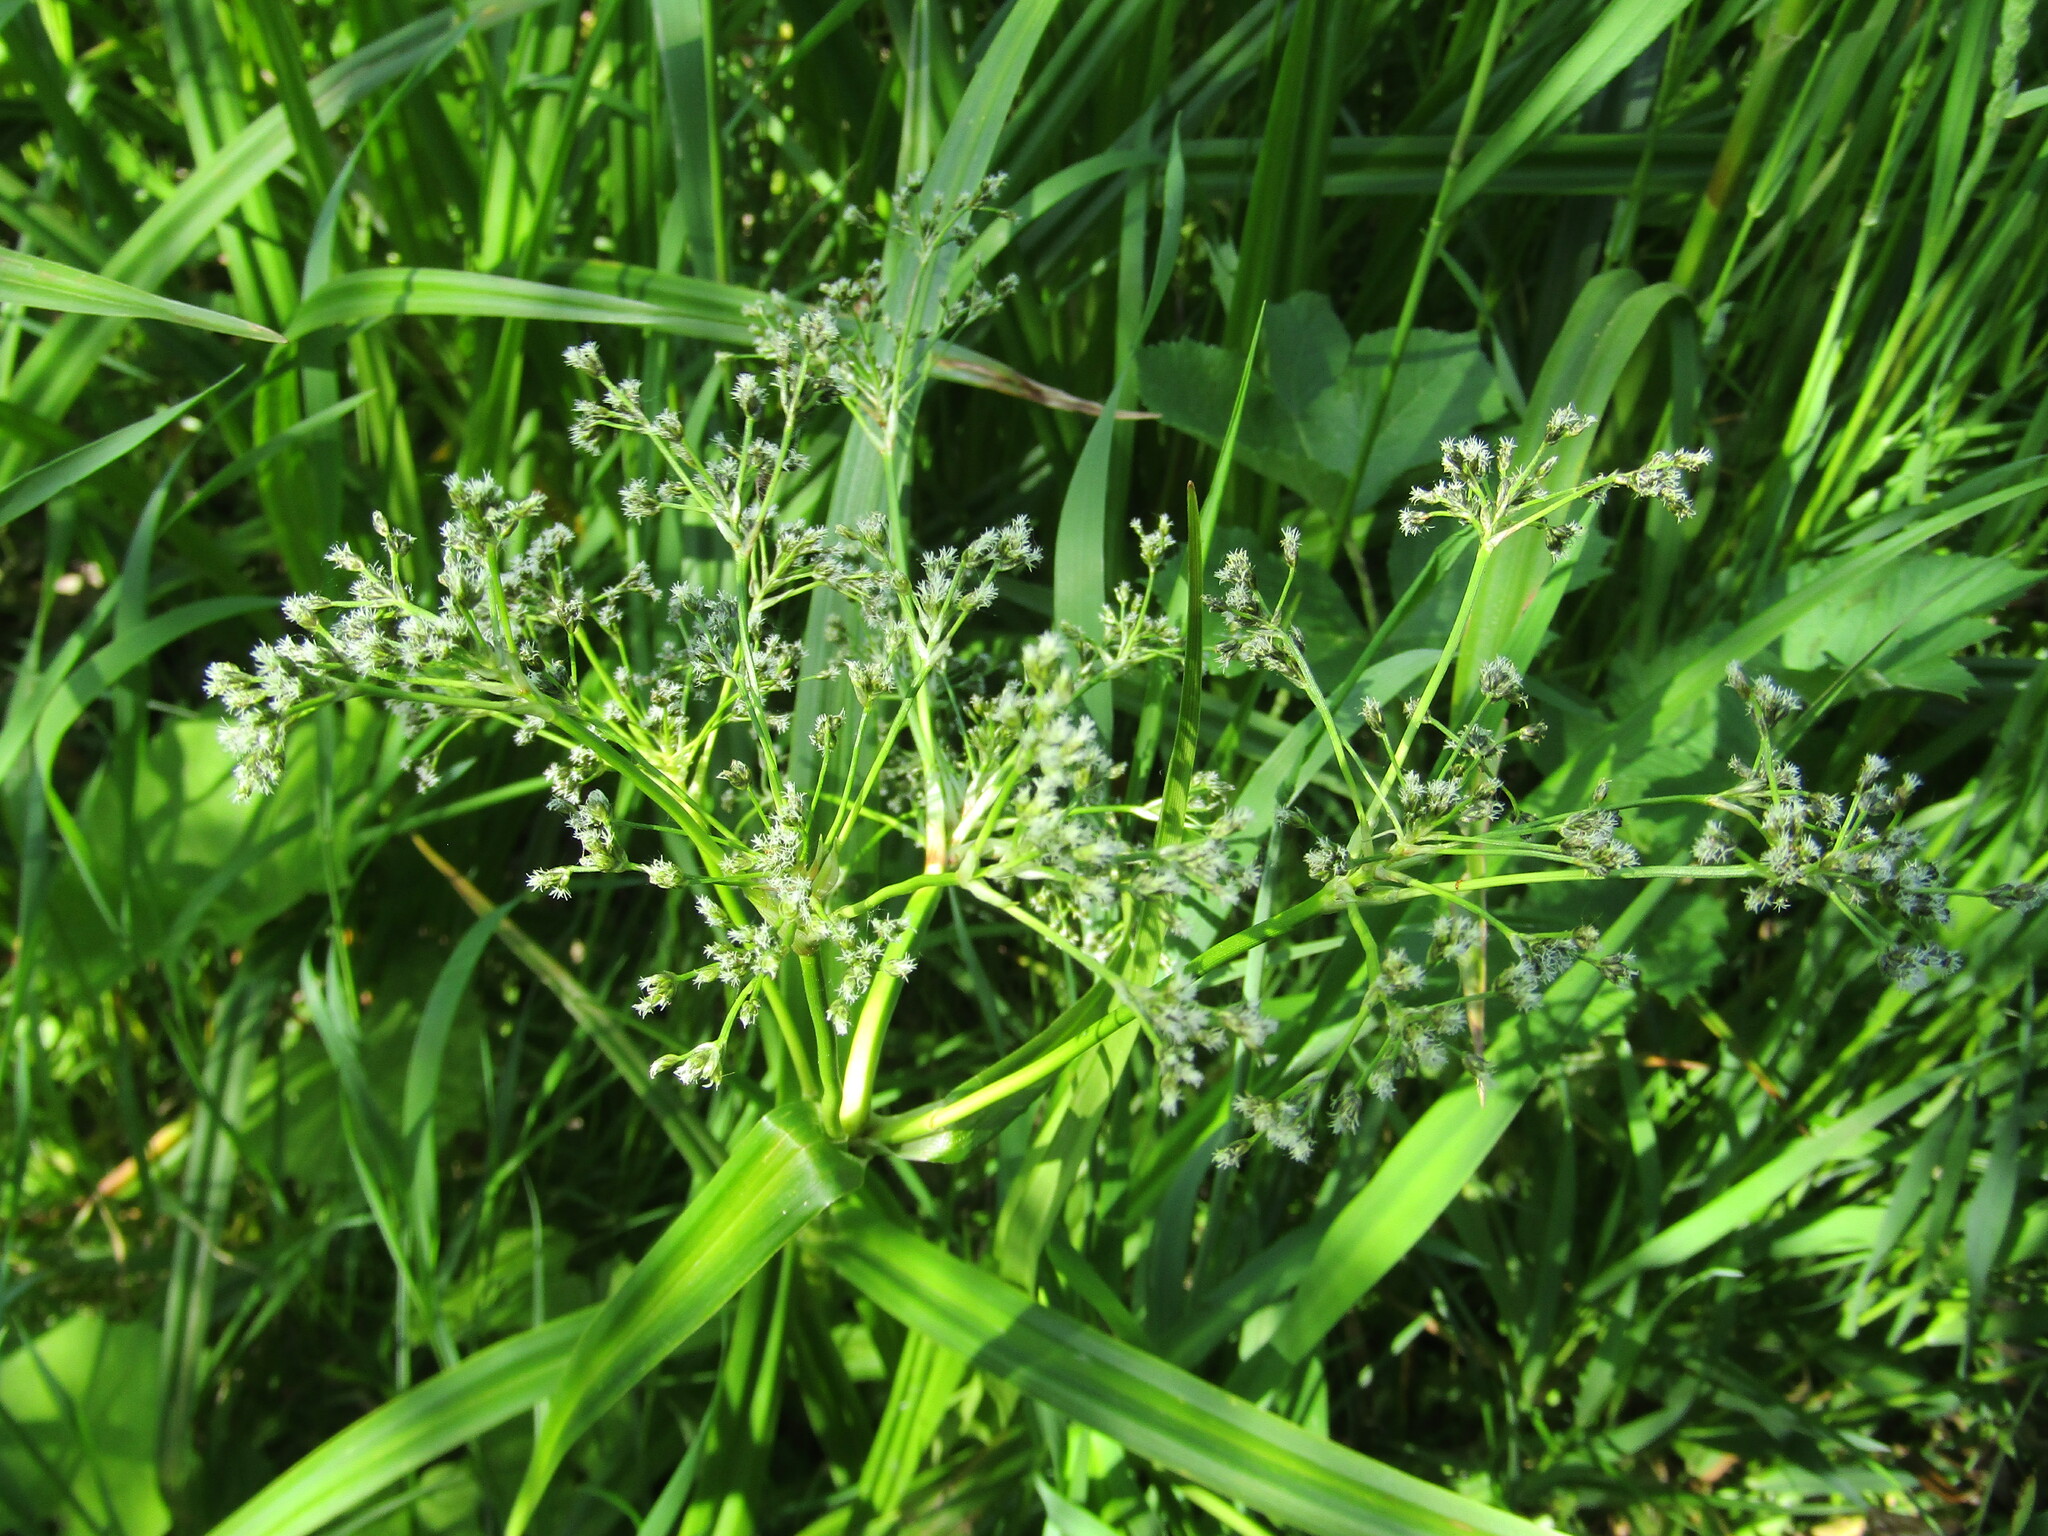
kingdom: Plantae
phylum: Tracheophyta
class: Liliopsida
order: Poales
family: Cyperaceae
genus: Scirpus
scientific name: Scirpus sylvaticus
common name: Wood club-rush
